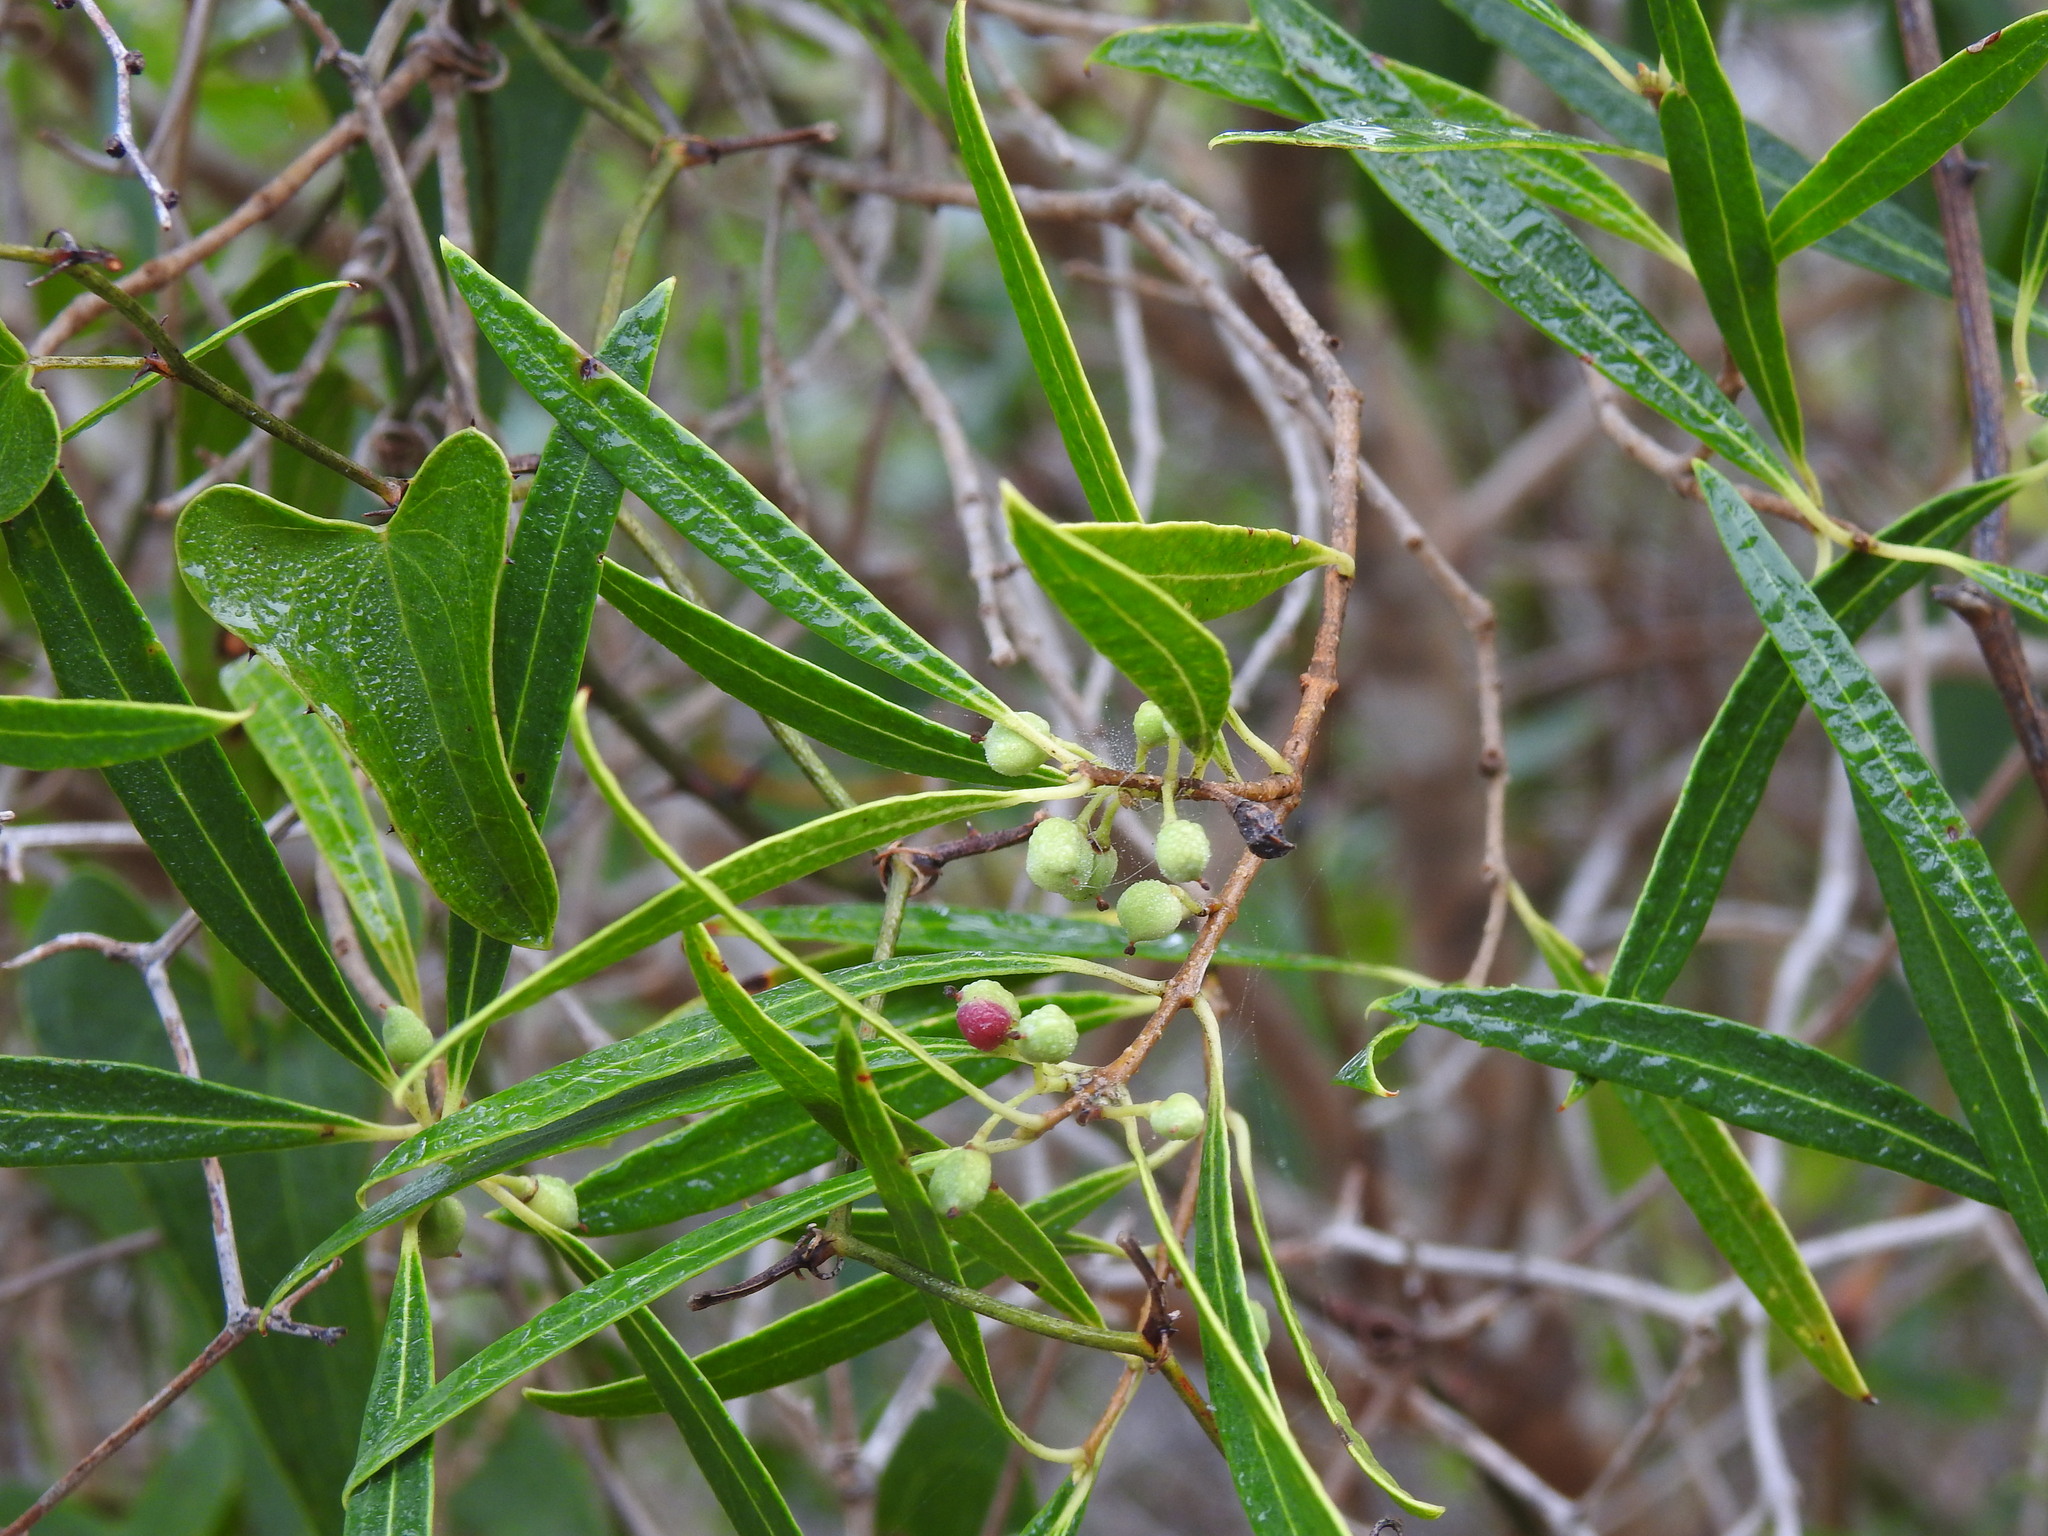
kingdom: Plantae
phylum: Tracheophyta
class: Magnoliopsida
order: Lamiales
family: Oleaceae
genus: Phillyrea
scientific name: Phillyrea angustifolia
